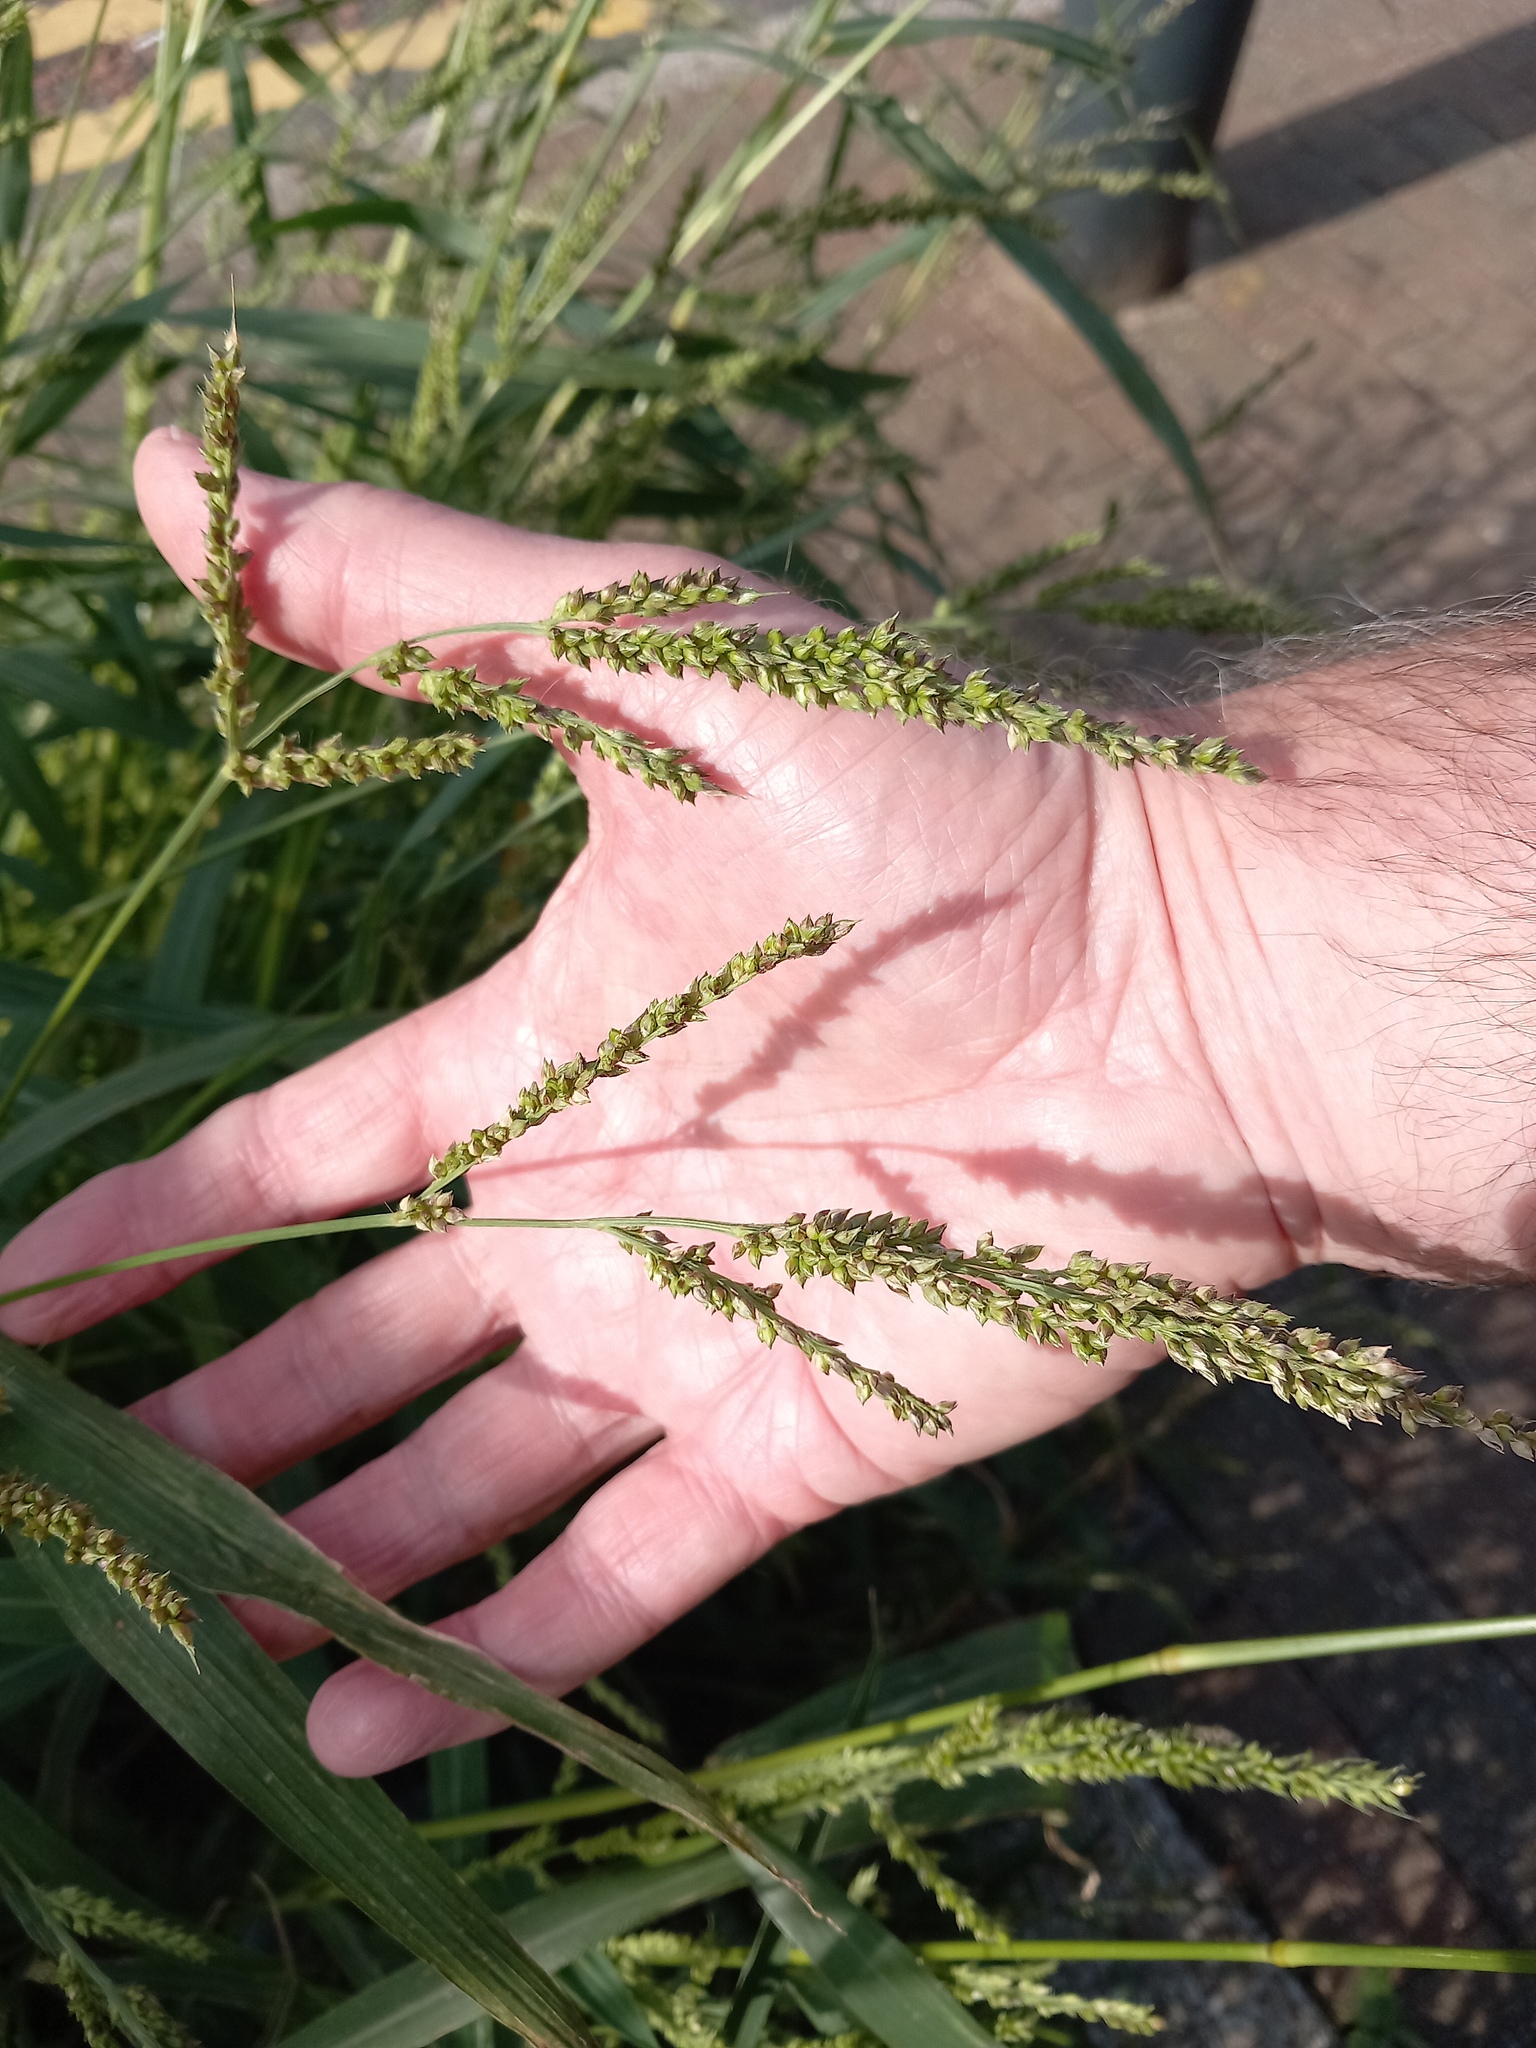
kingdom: Plantae
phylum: Tracheophyta
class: Liliopsida
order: Poales
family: Poaceae
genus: Echinochloa
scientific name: Echinochloa crus-galli
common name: Cockspur
